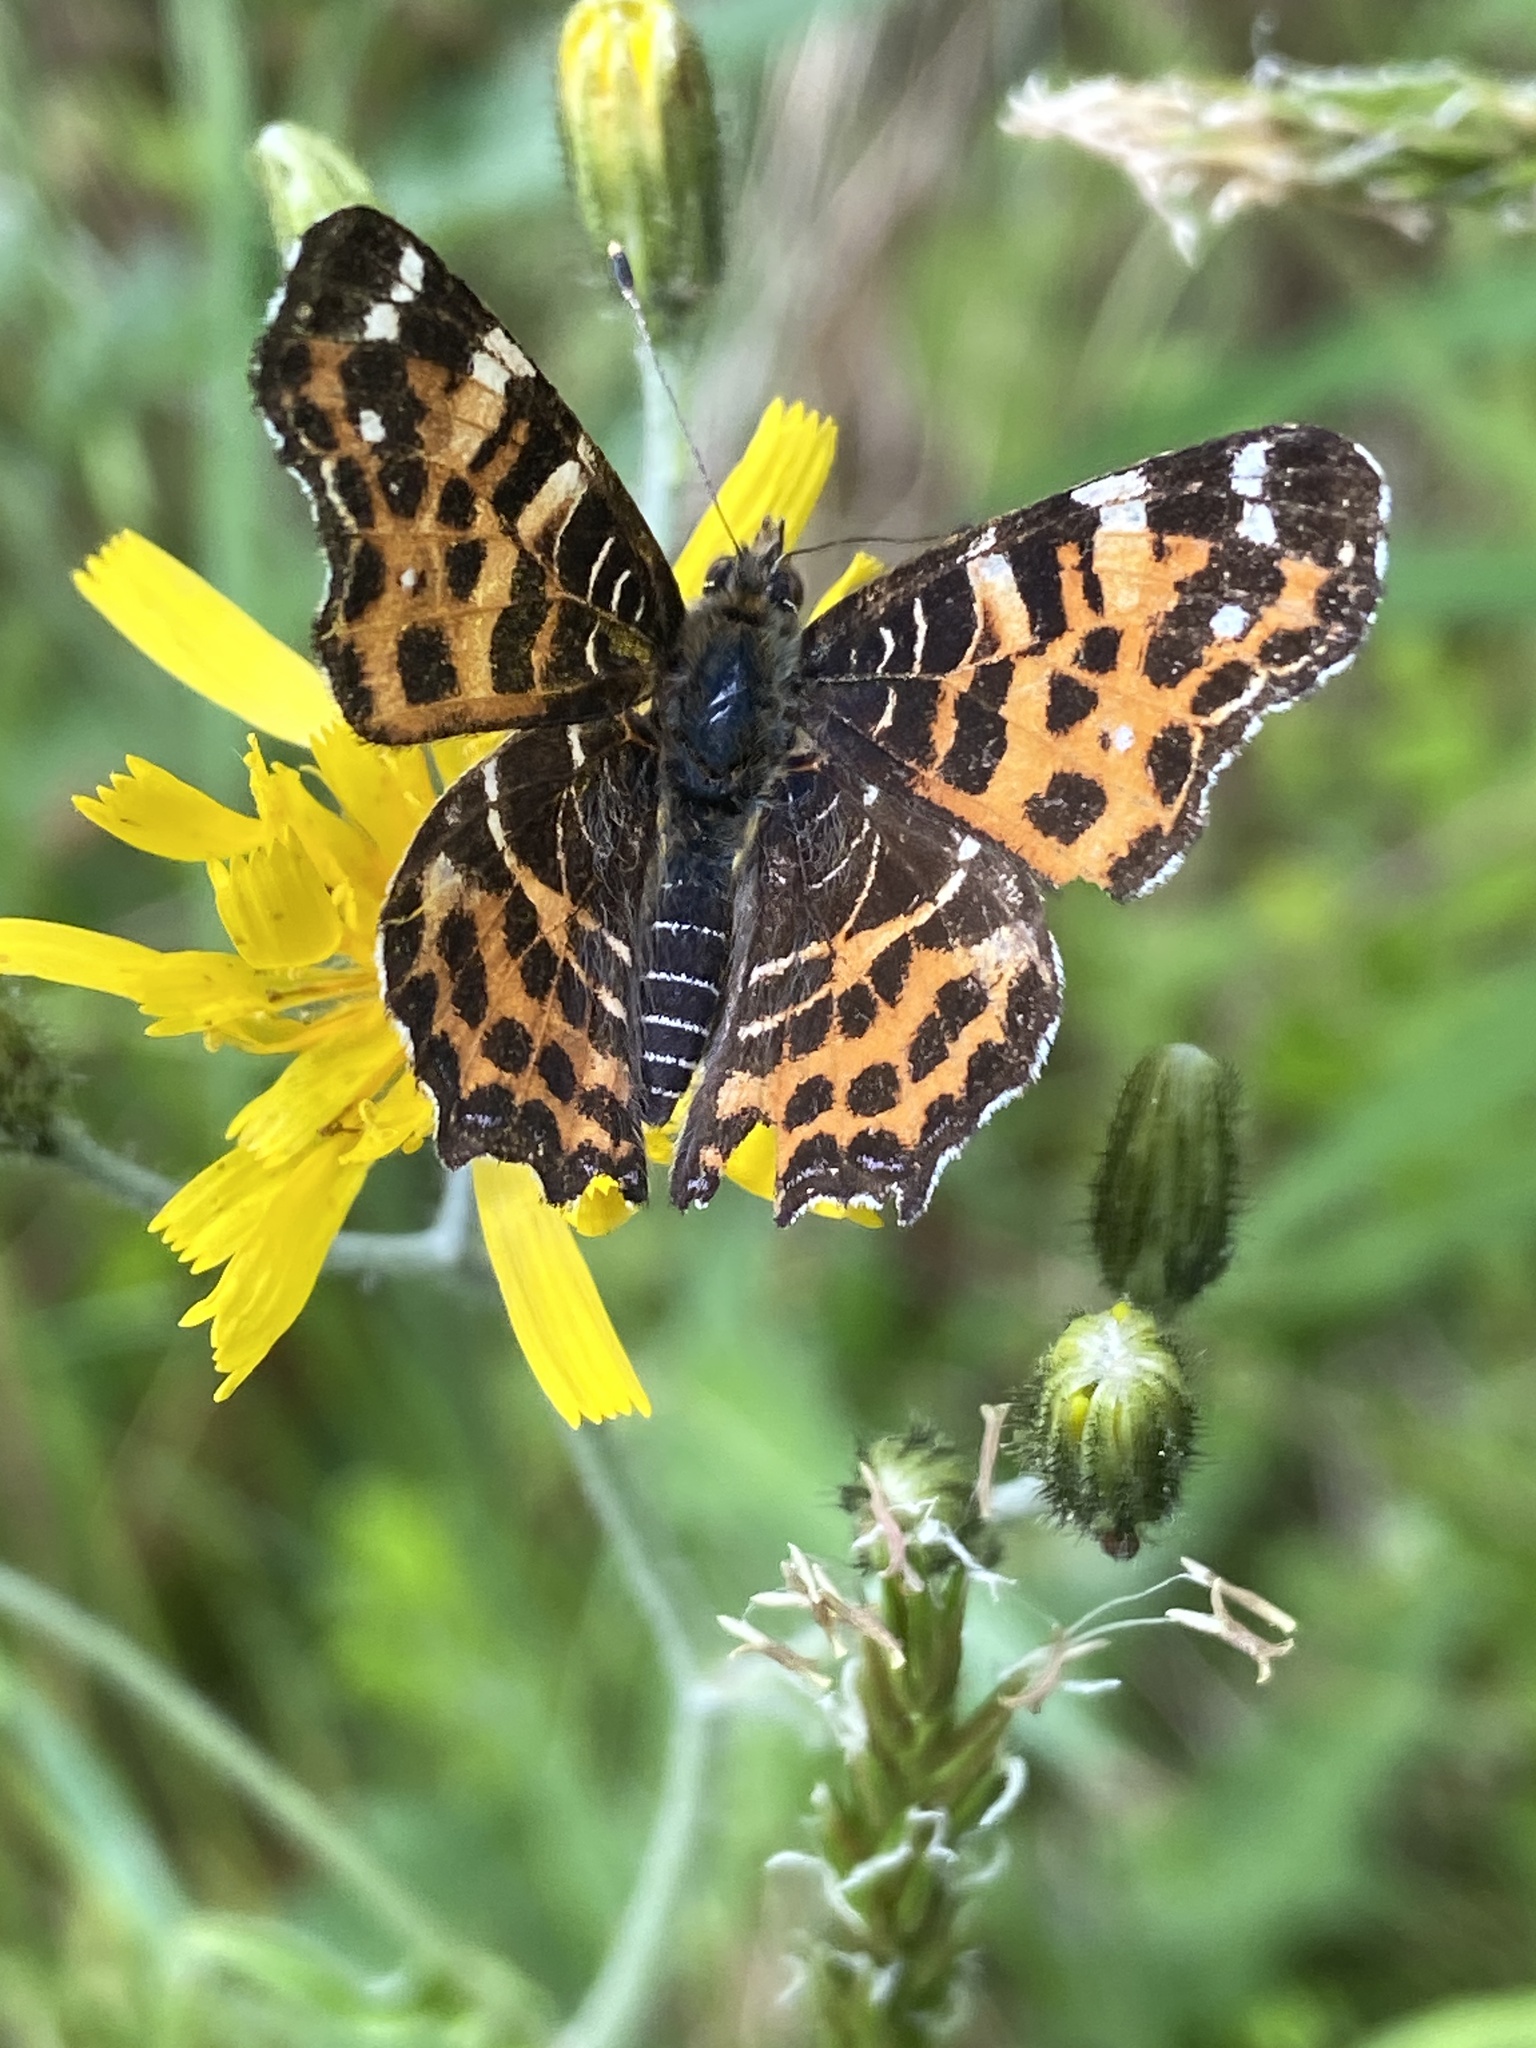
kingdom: Animalia
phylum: Arthropoda
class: Insecta
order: Lepidoptera
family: Nymphalidae
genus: Araschnia
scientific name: Araschnia levana
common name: Map butterfly
